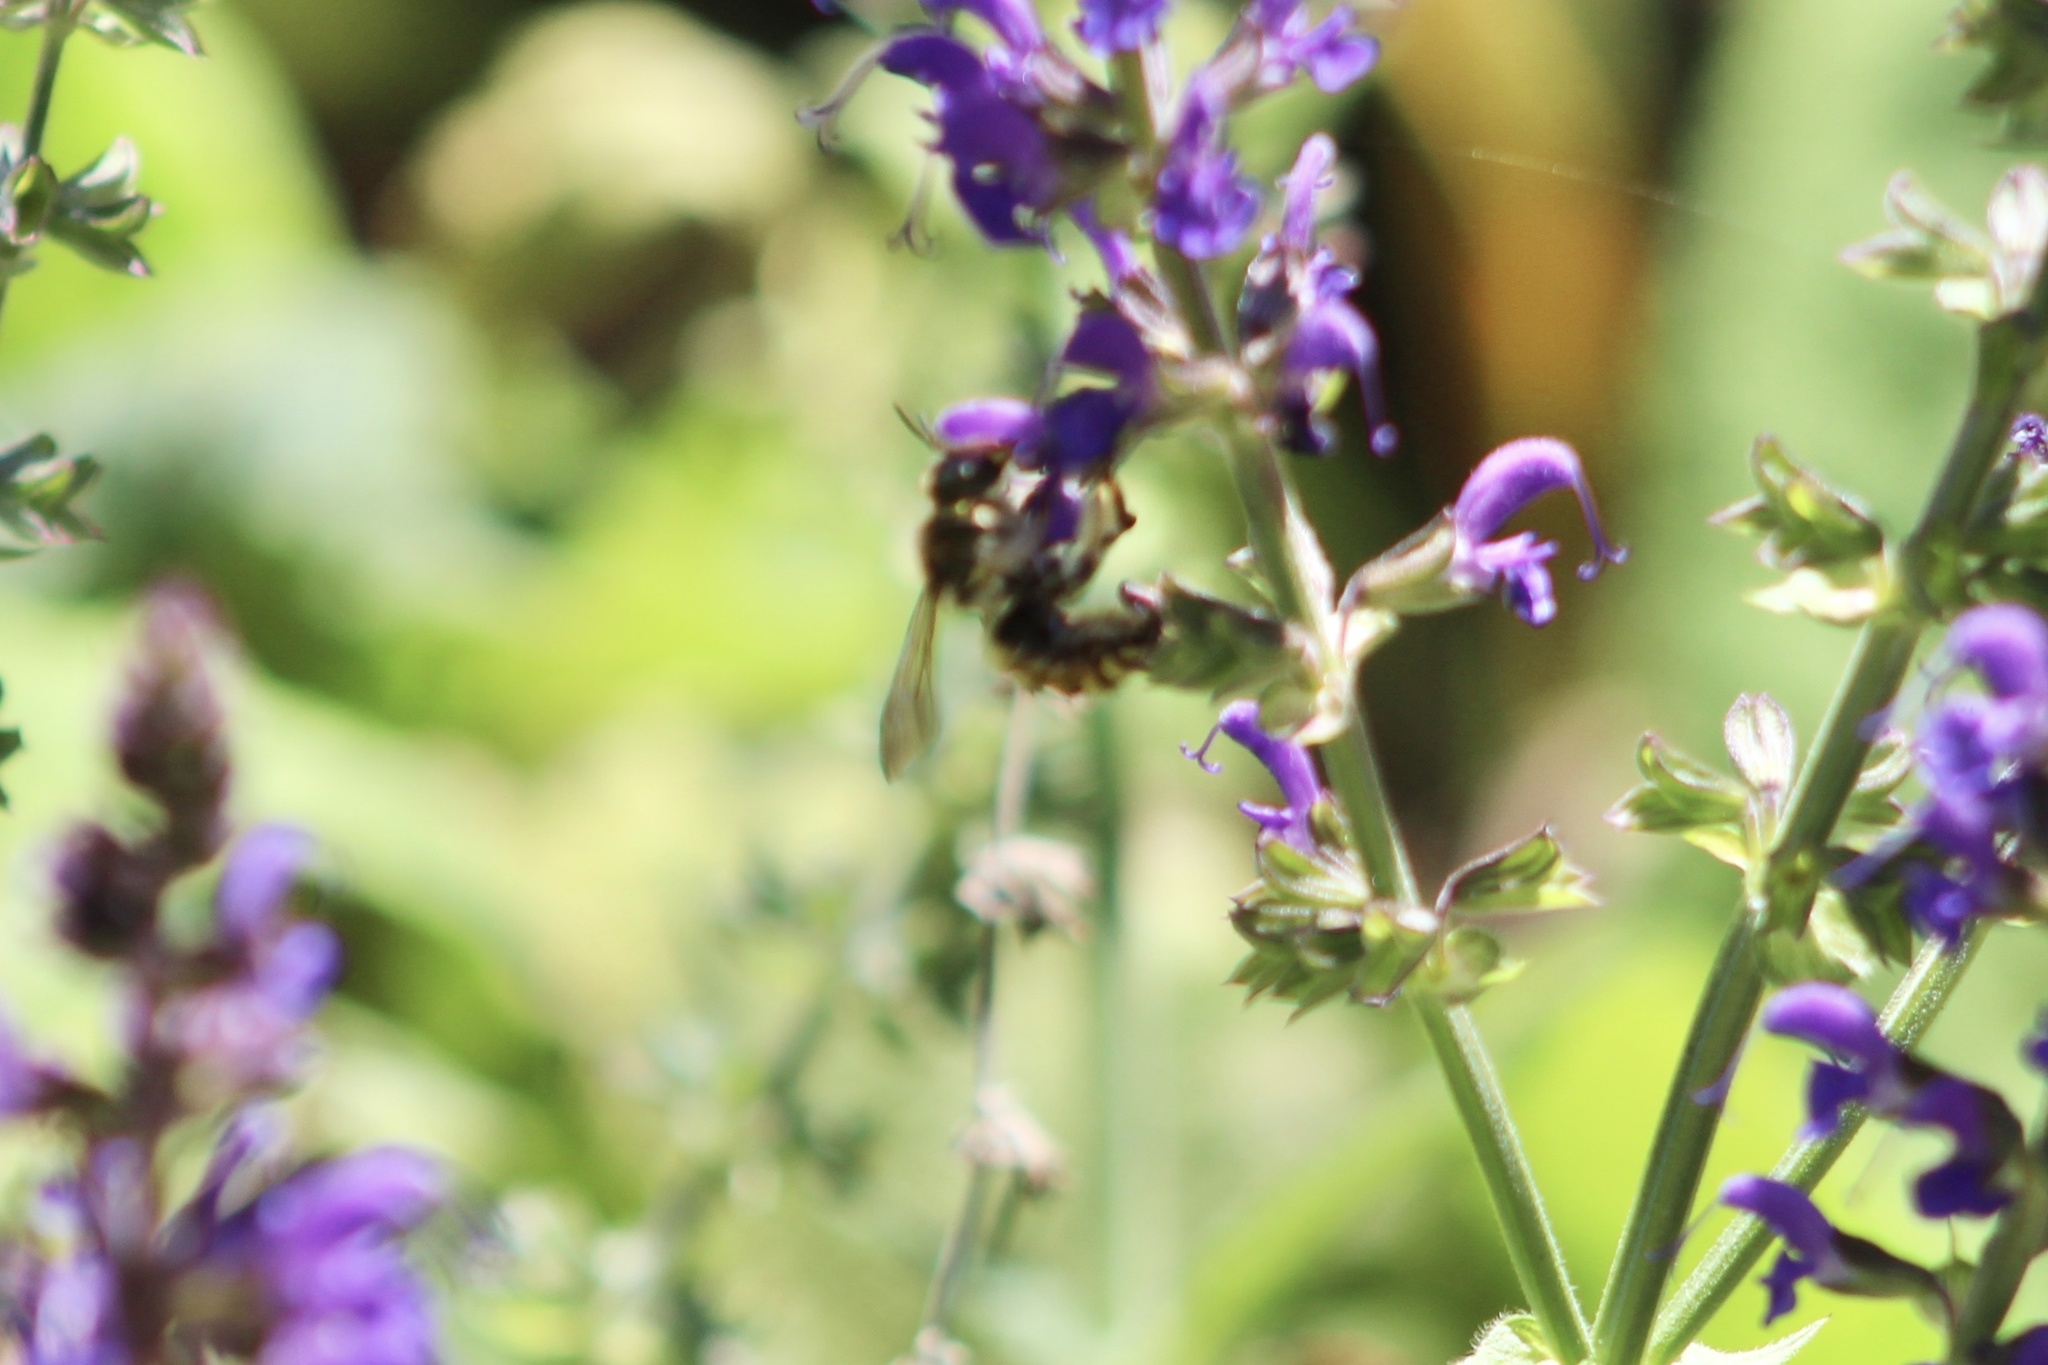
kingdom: Animalia
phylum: Arthropoda
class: Insecta
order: Hymenoptera
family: Megachilidae
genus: Anthidium
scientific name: Anthidium manicatum
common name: Wool carder bee
